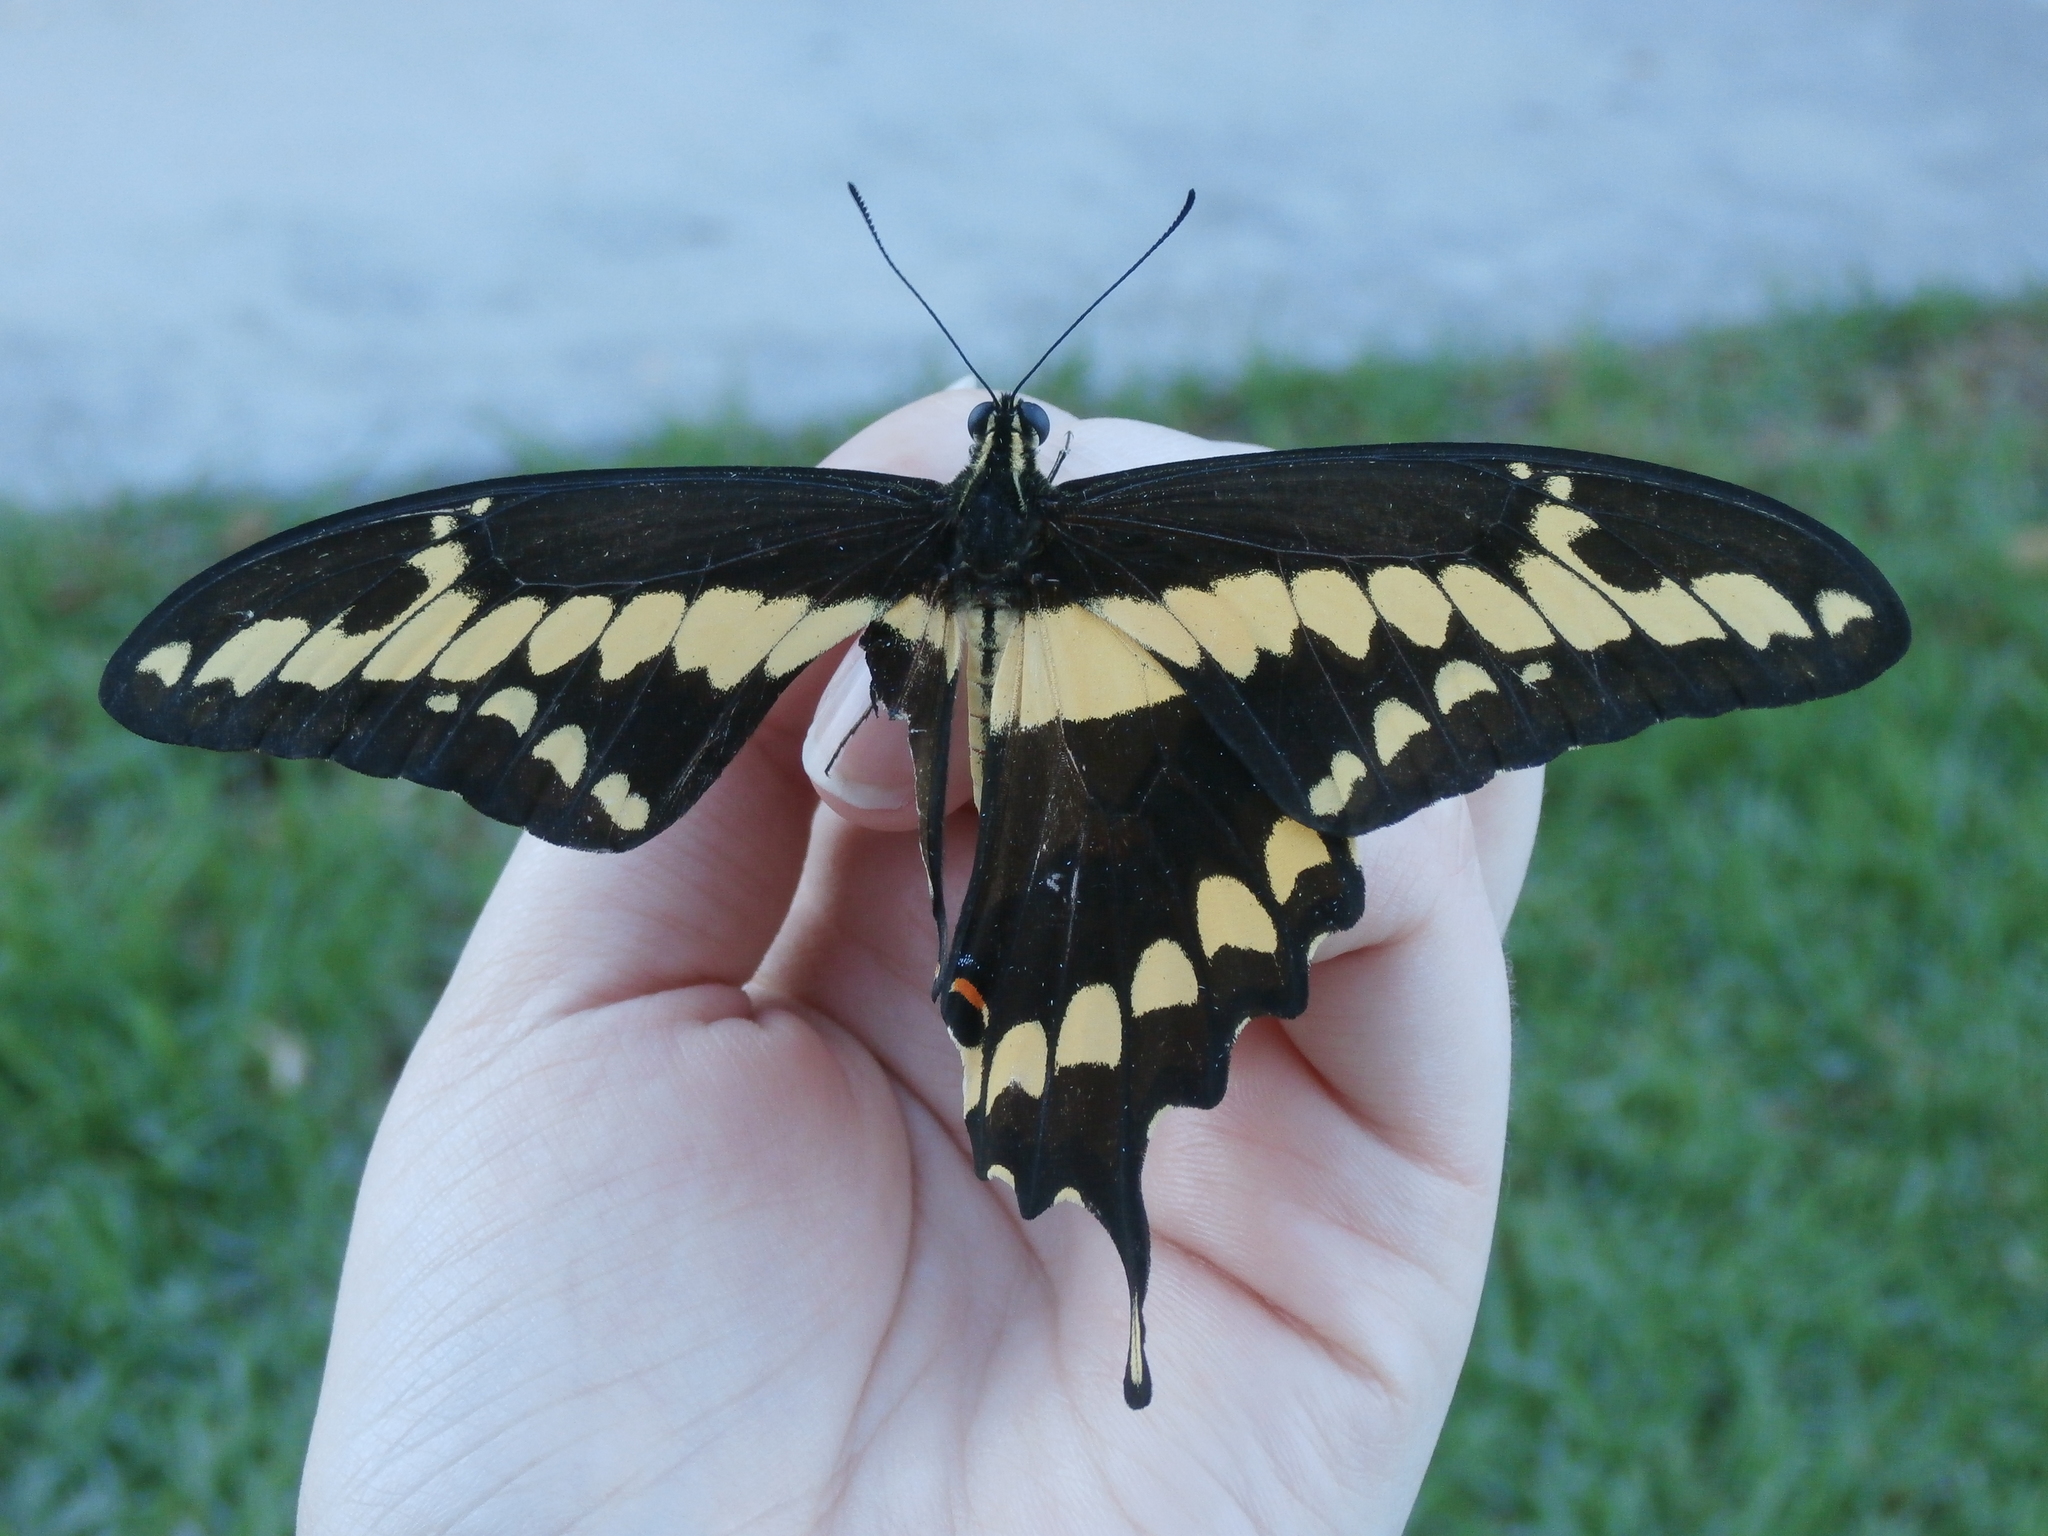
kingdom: Animalia
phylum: Arthropoda
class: Insecta
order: Lepidoptera
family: Papilionidae
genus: Papilio
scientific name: Papilio rumiko
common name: Western giant swallowtail
